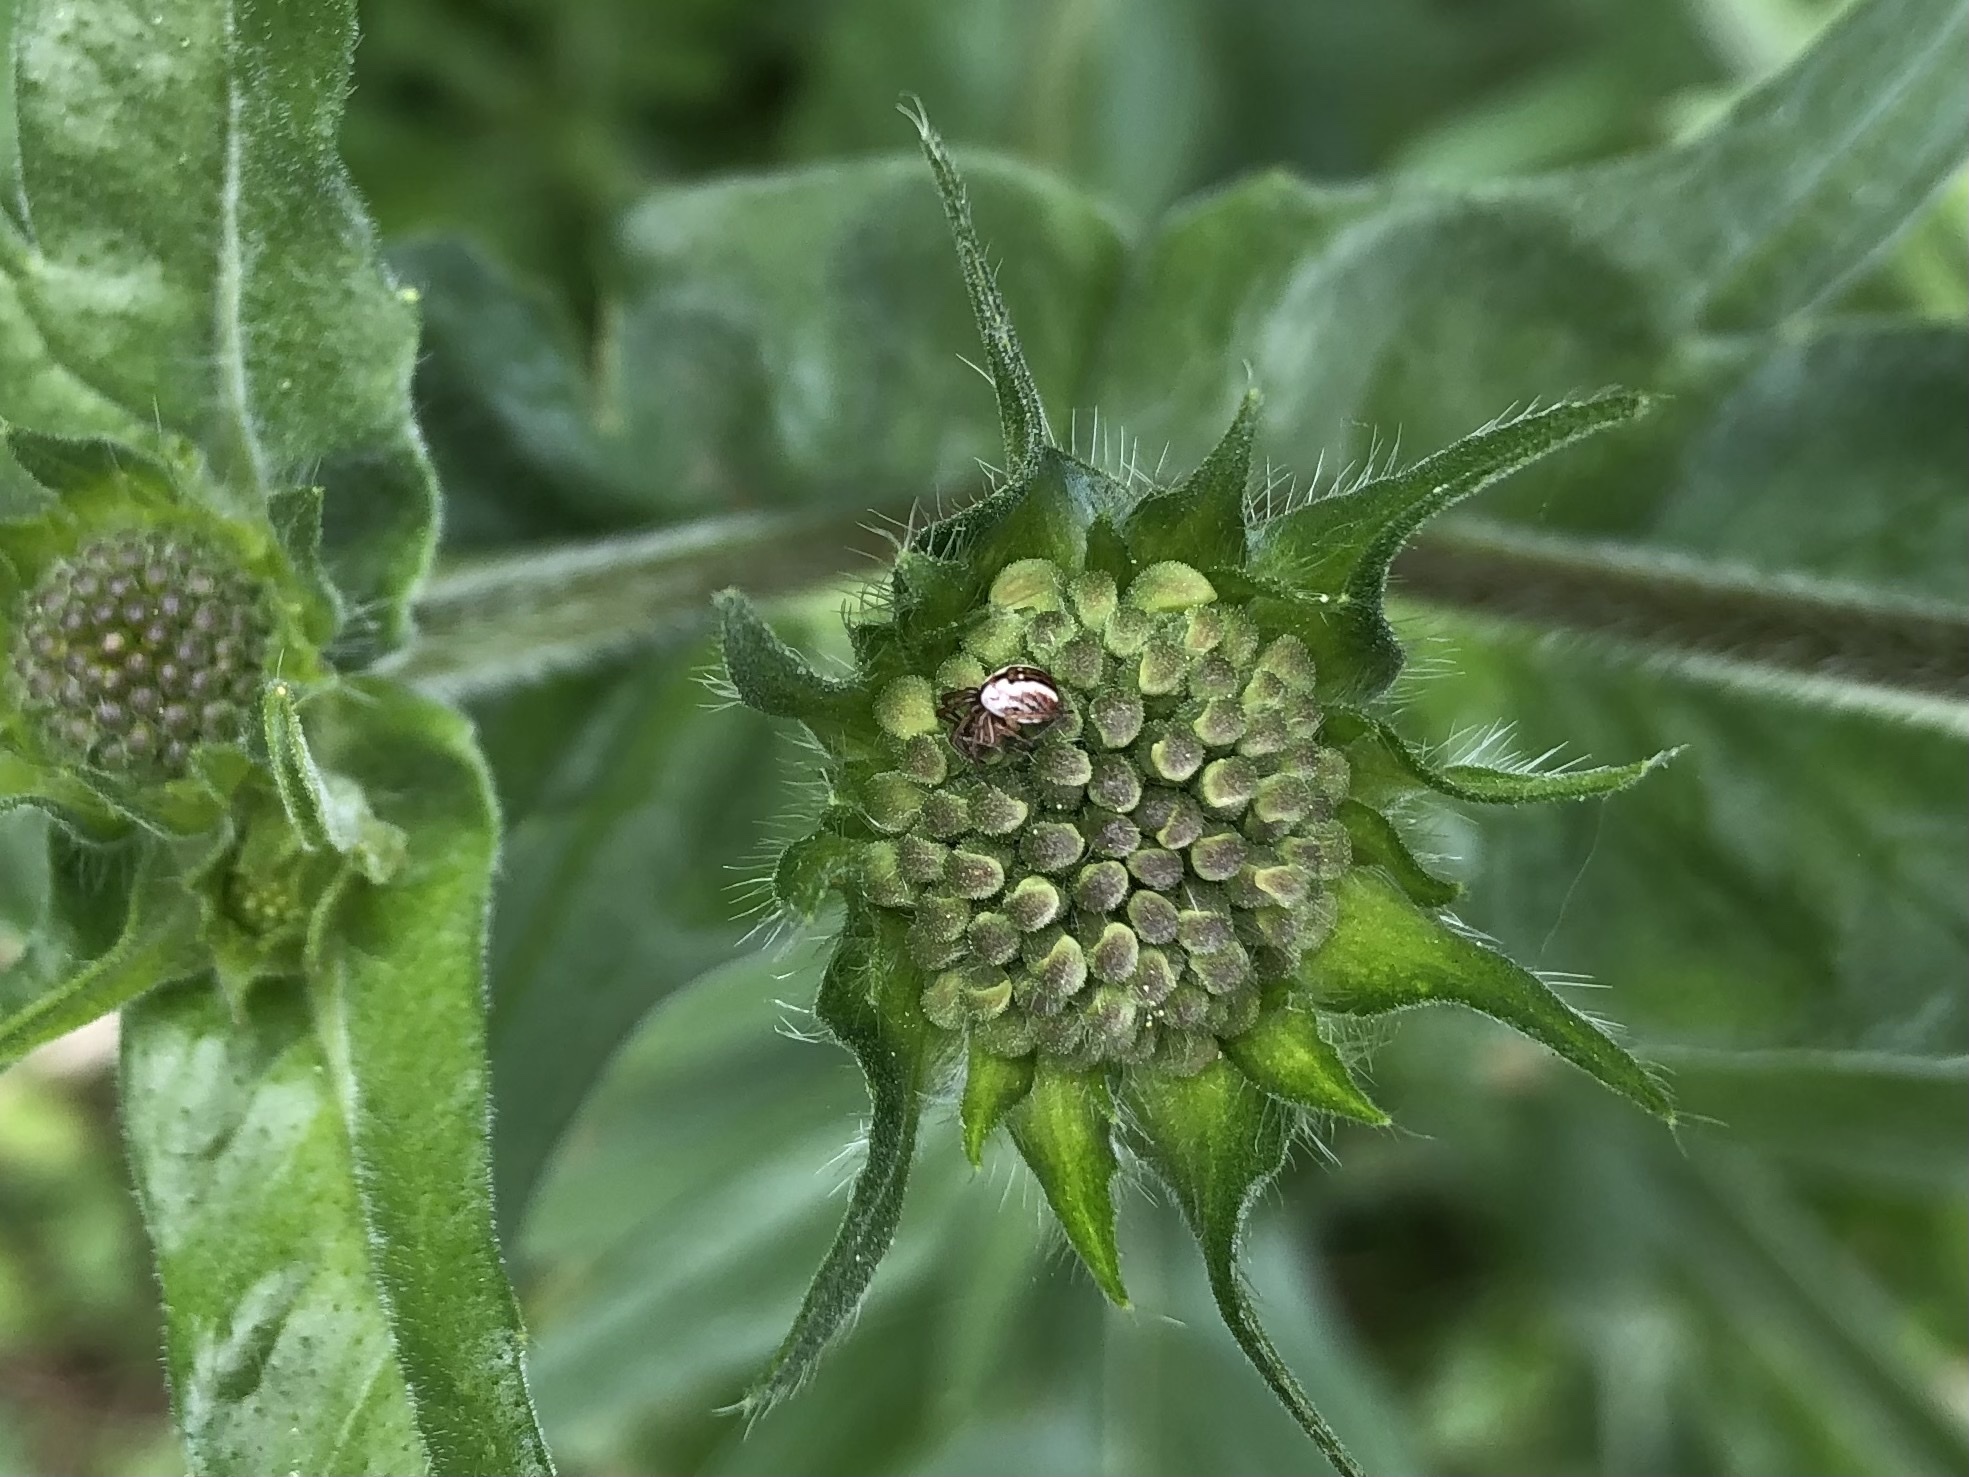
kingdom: Animalia
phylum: Arthropoda
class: Arachnida
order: Araneae
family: Araneidae
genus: Mangora
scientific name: Mangora acalypha
